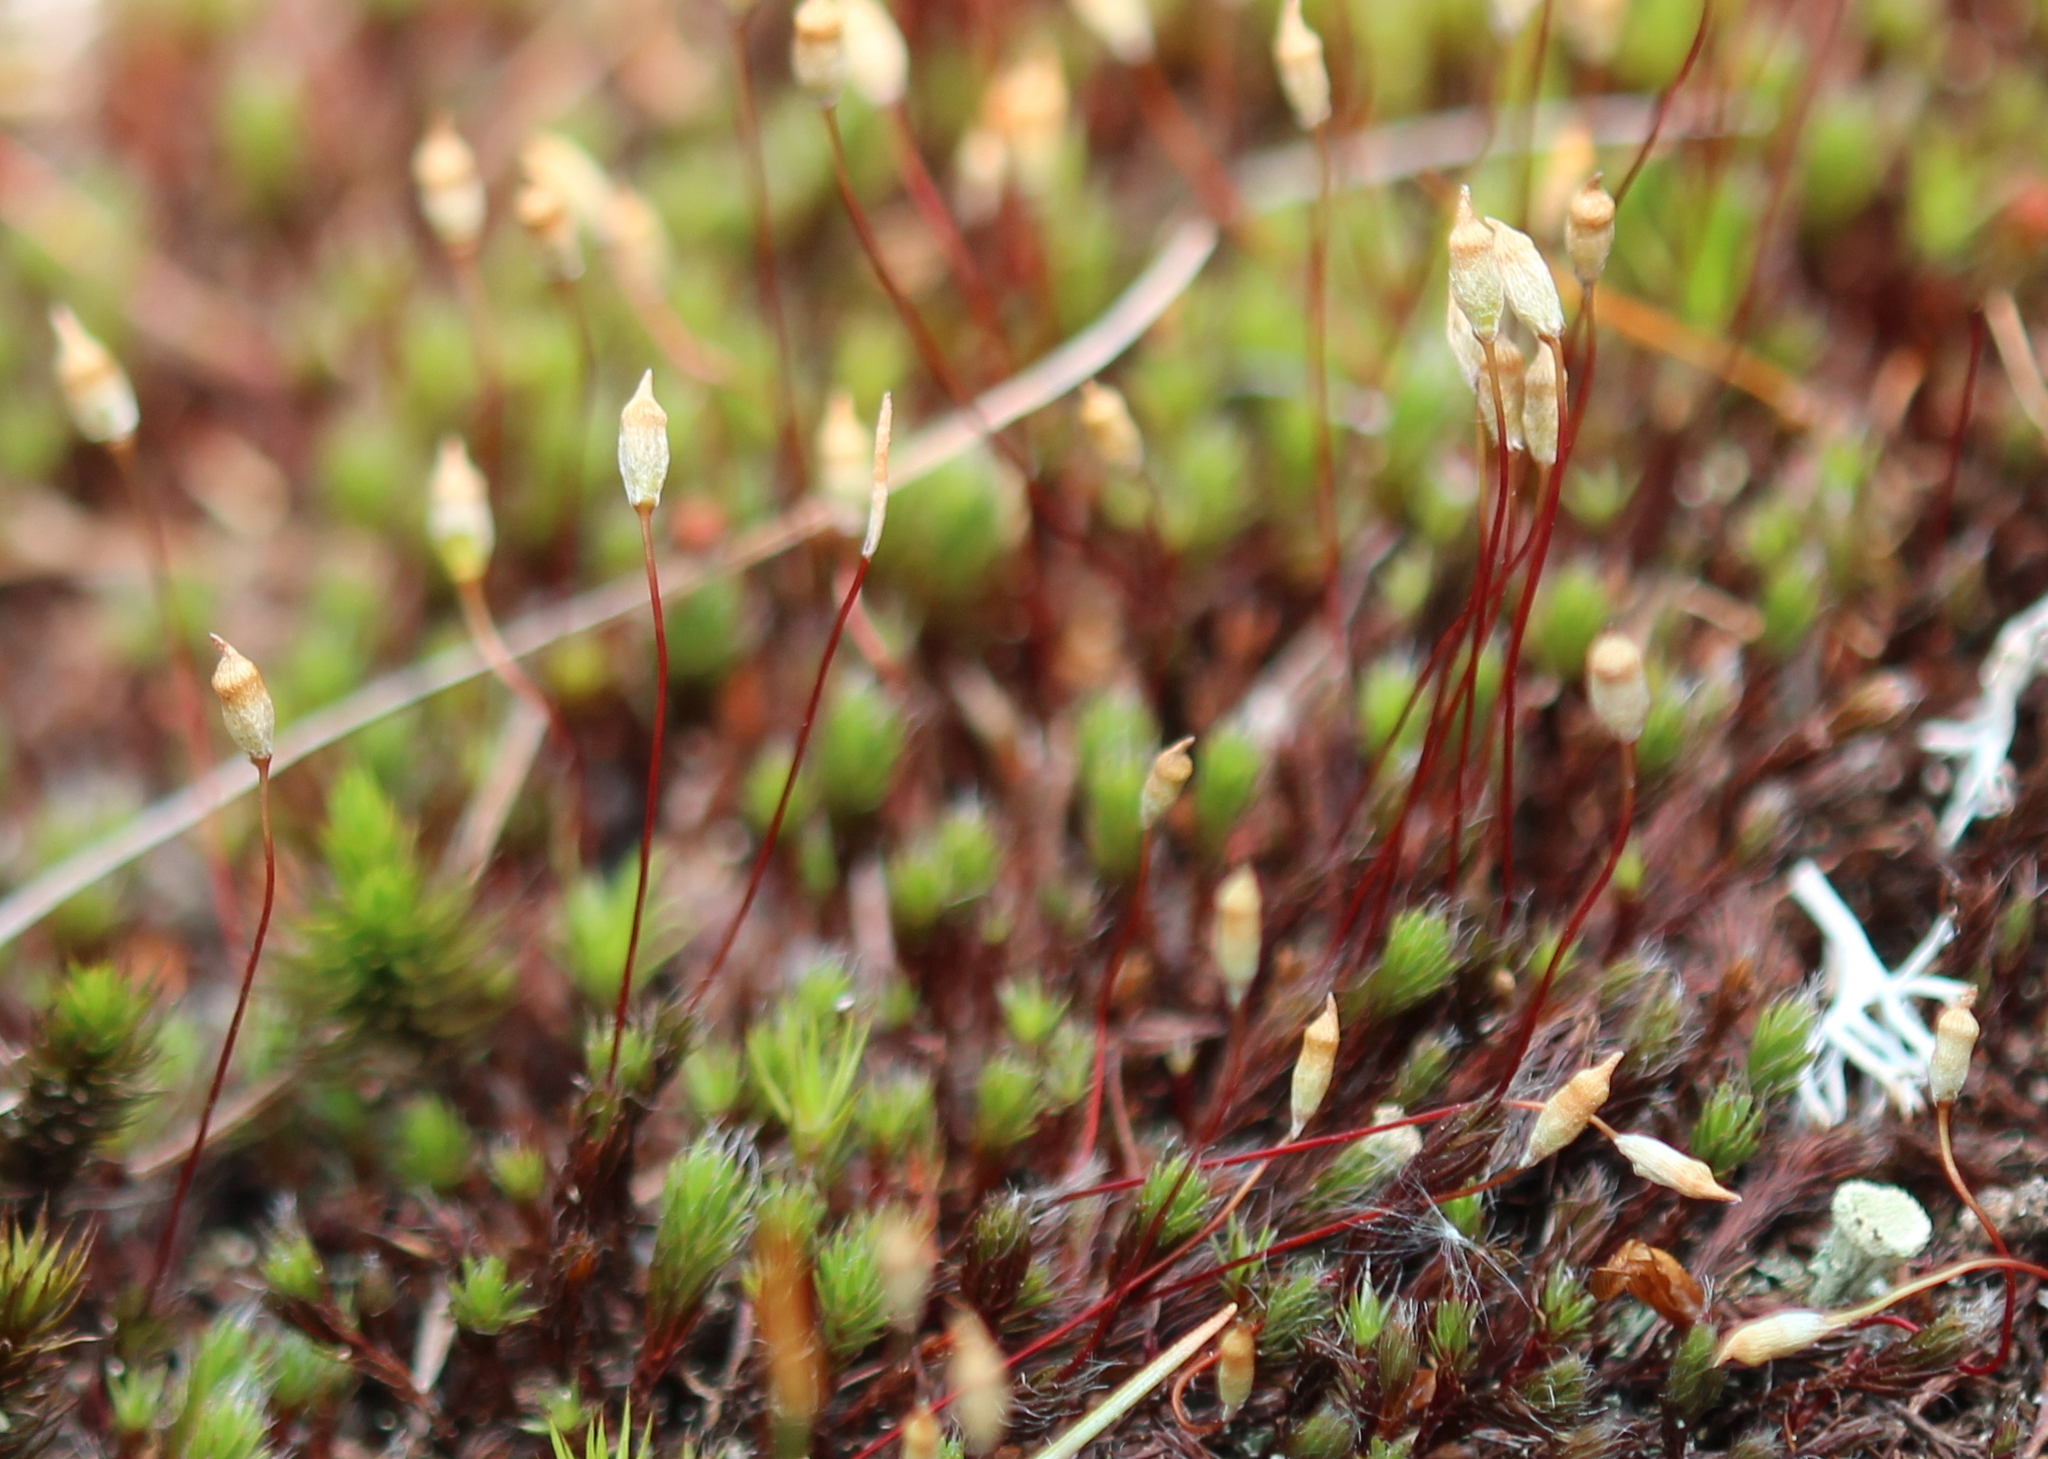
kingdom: Plantae
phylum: Bryophyta
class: Polytrichopsida
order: Polytrichales
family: Polytrichaceae
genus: Polytrichum
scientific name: Polytrichum piliferum
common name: Bristly haircap
